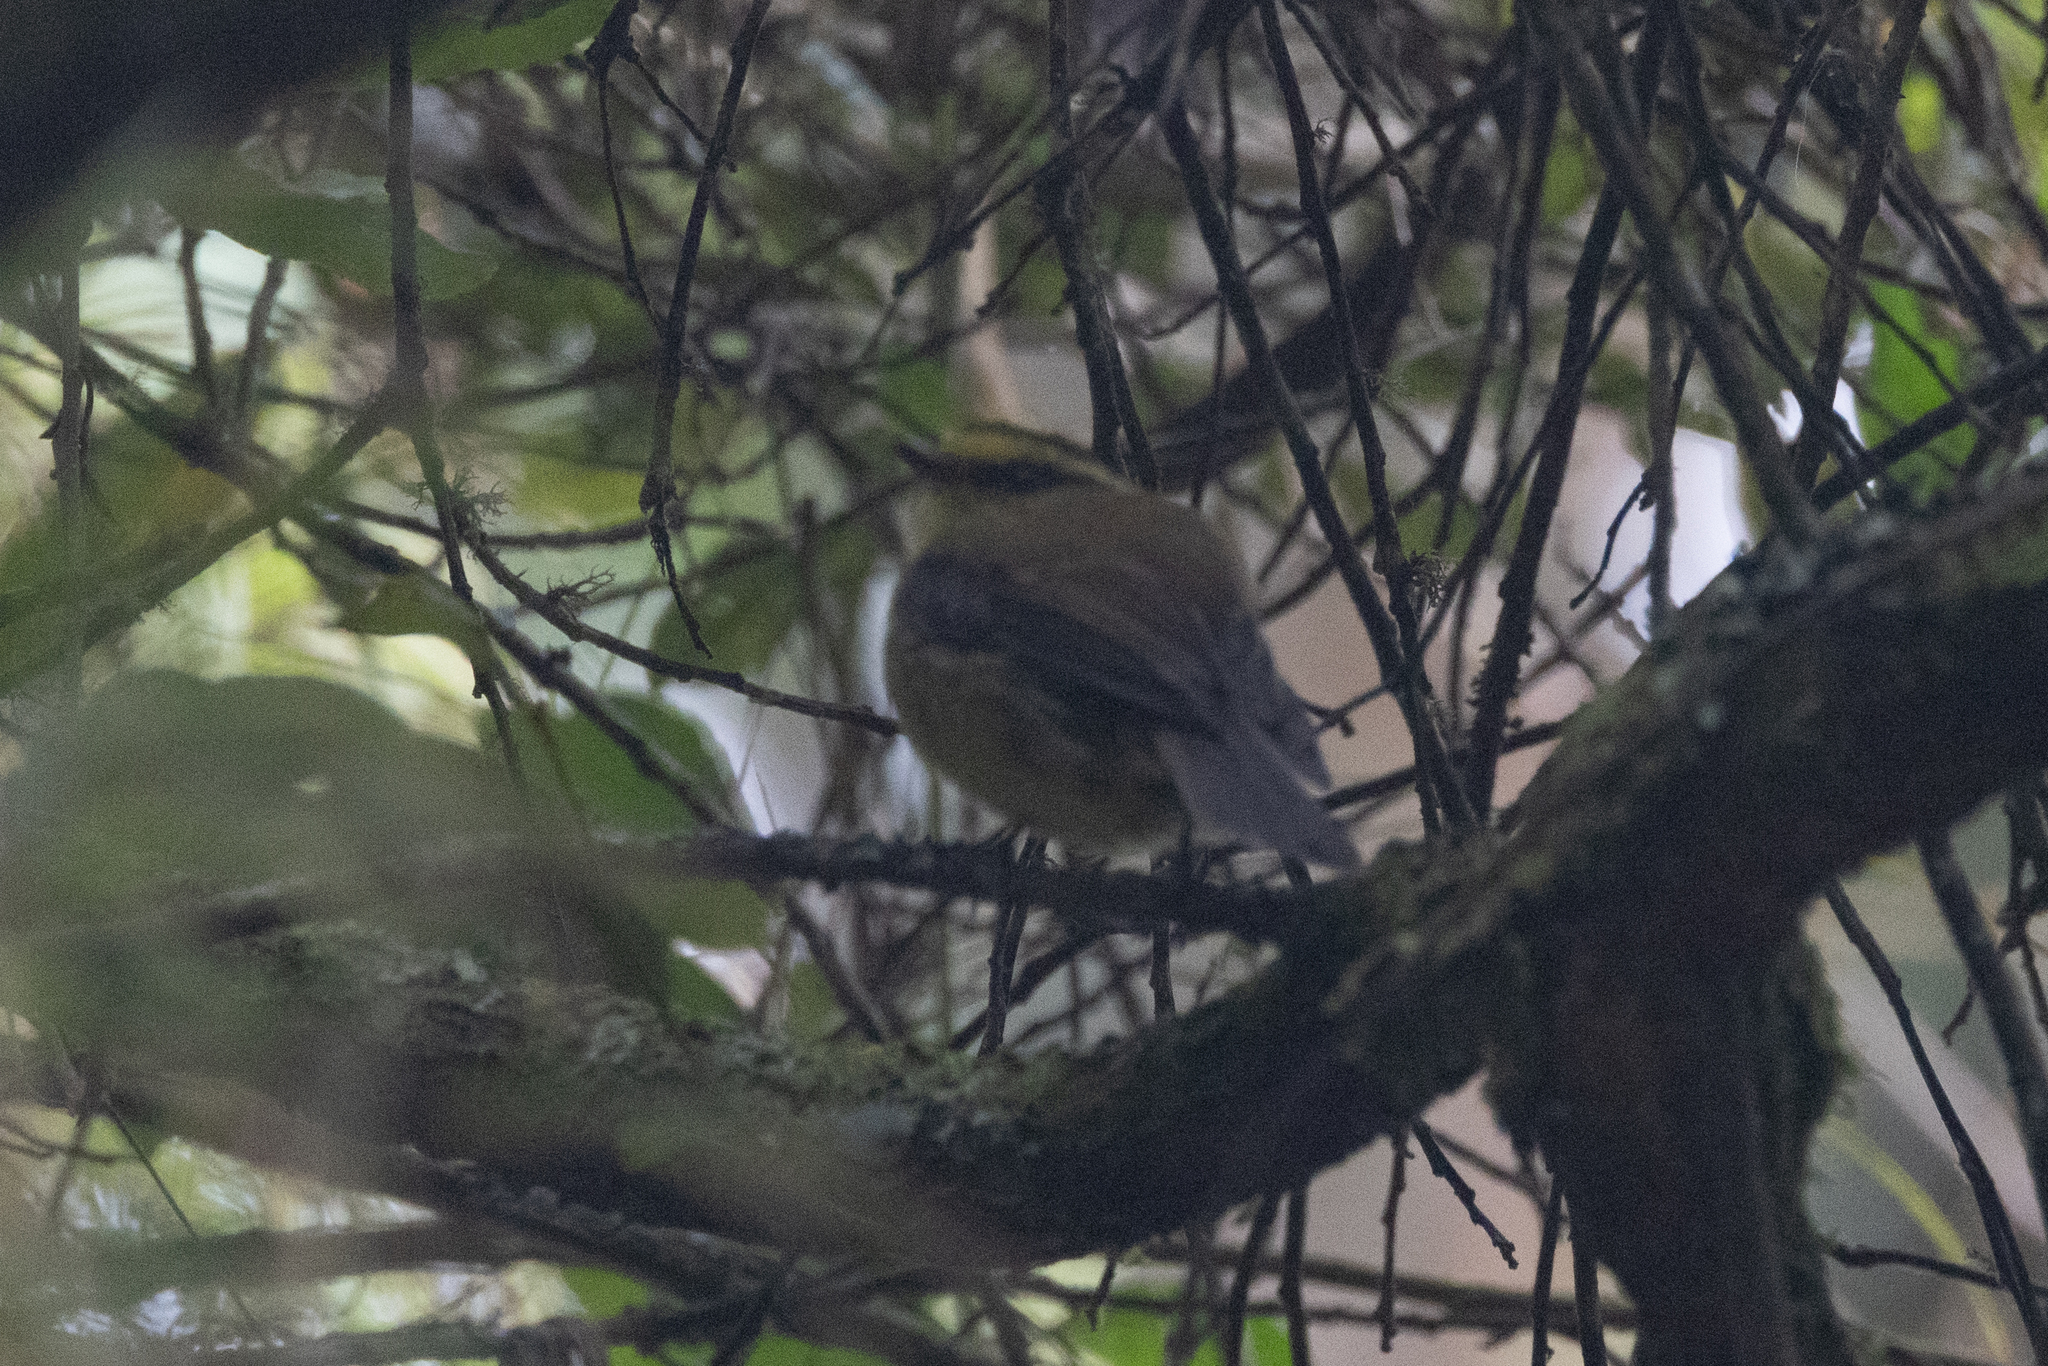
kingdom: Animalia
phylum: Chordata
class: Aves
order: Passeriformes
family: Tyrannidae
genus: Ochthoeca
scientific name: Ochthoeca diadema
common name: Yellow-bellied chat-tyrant
